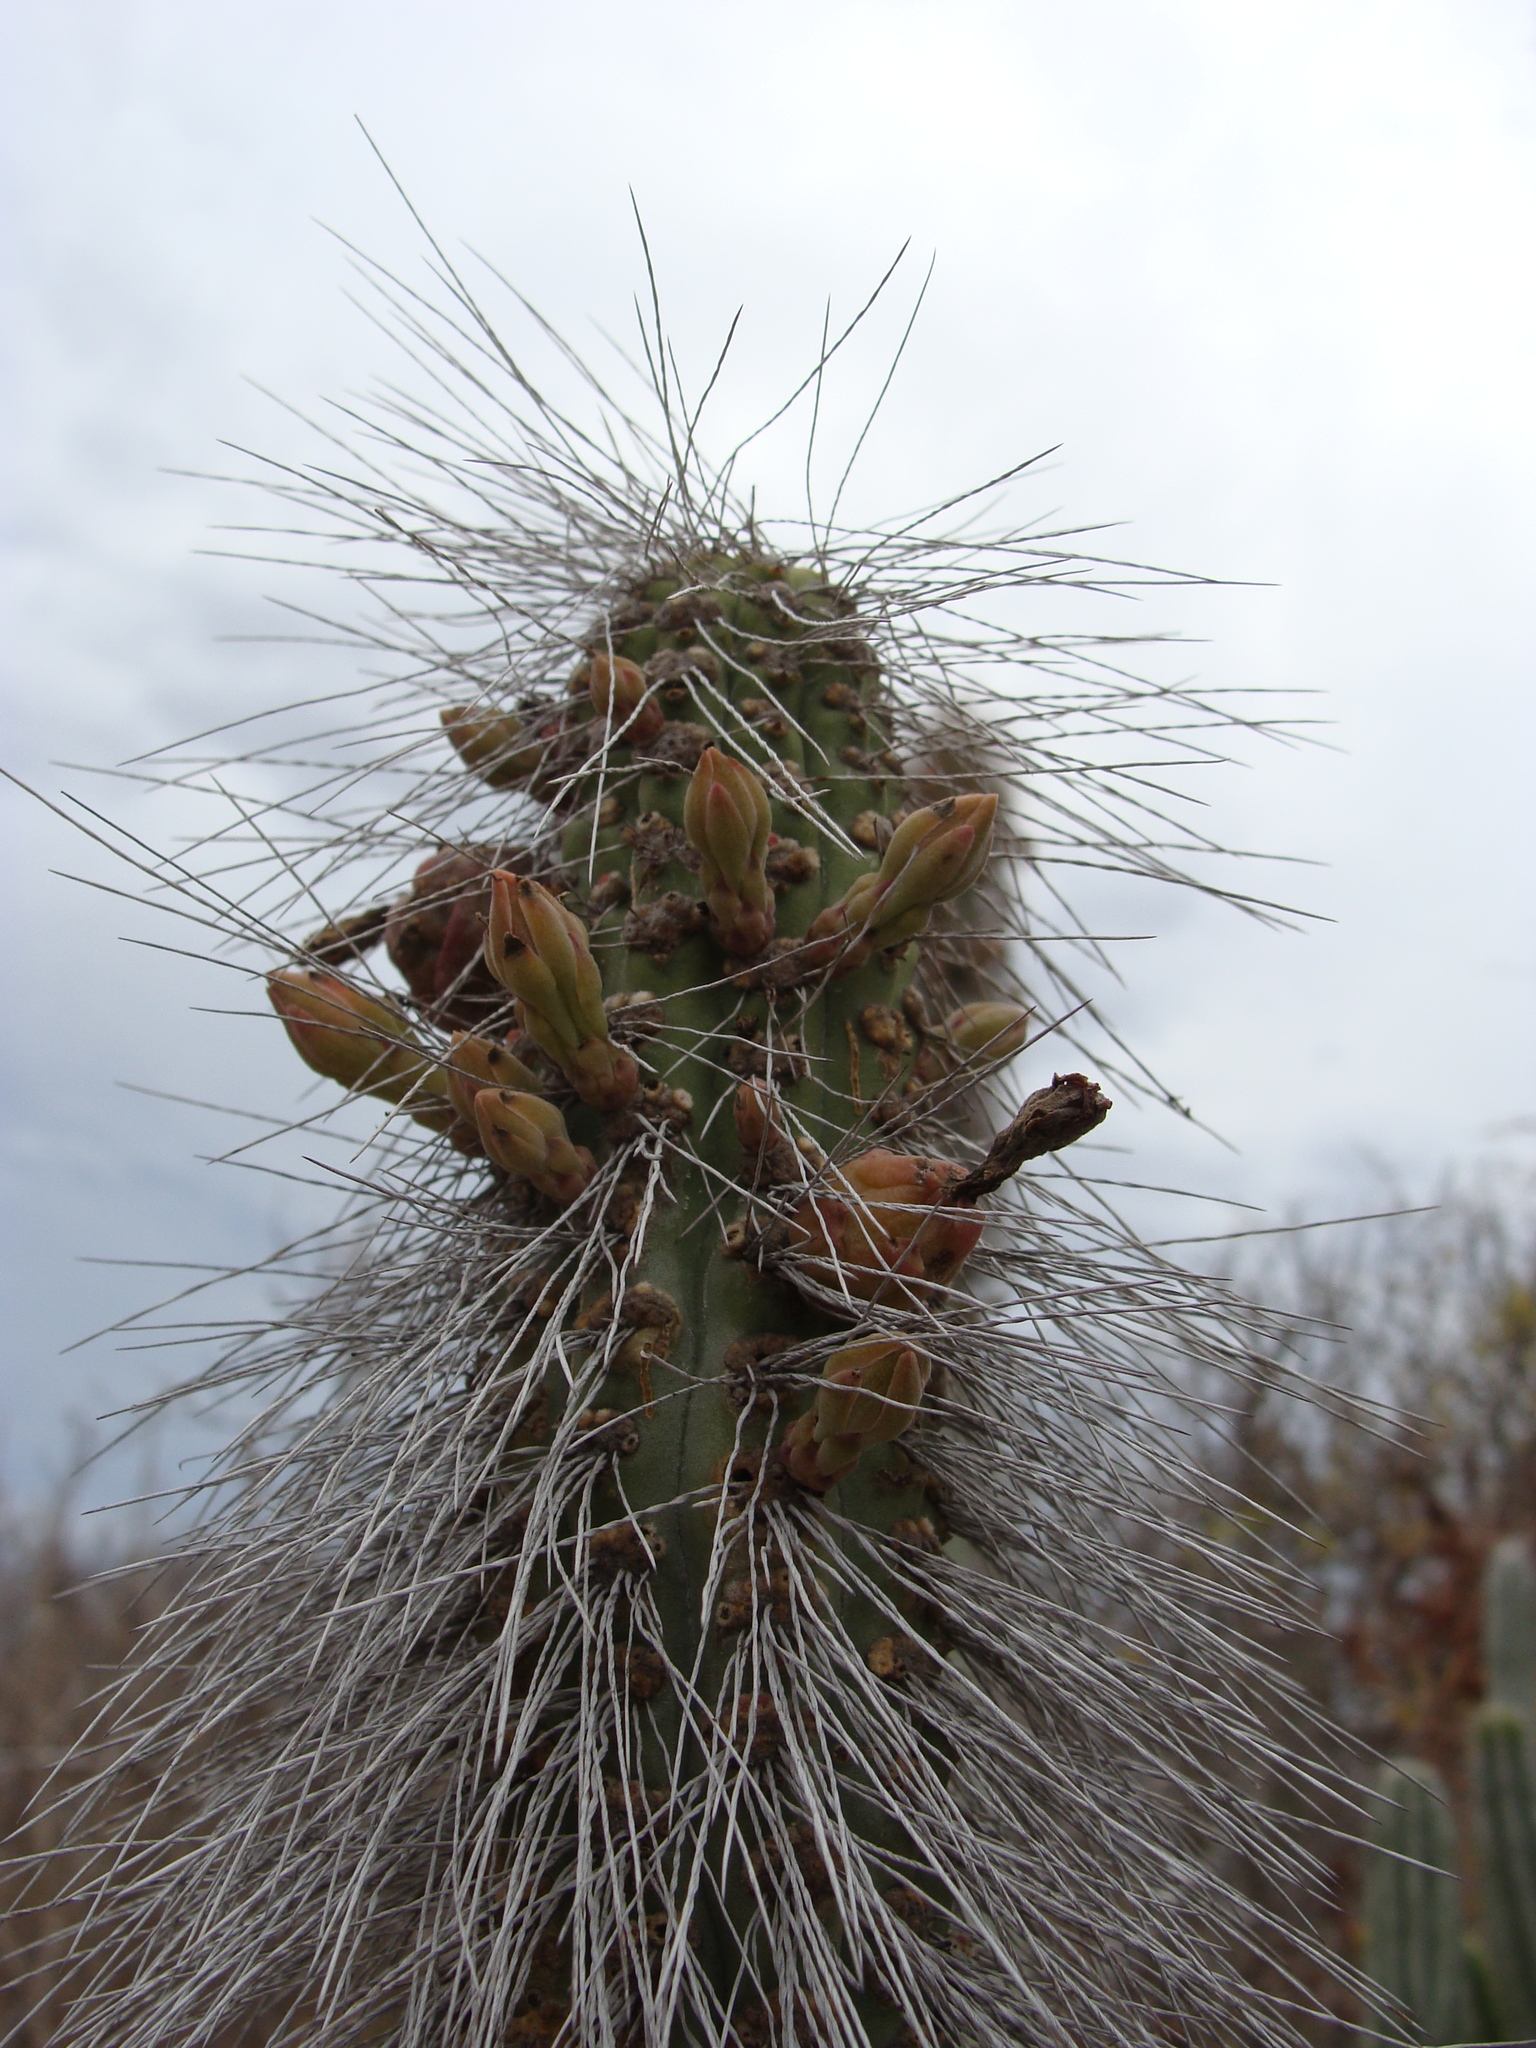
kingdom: Plantae
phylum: Tracheophyta
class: Magnoliopsida
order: Caryophyllales
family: Cactaceae
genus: Pachycereus
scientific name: Pachycereus schottii
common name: Senita cactus
